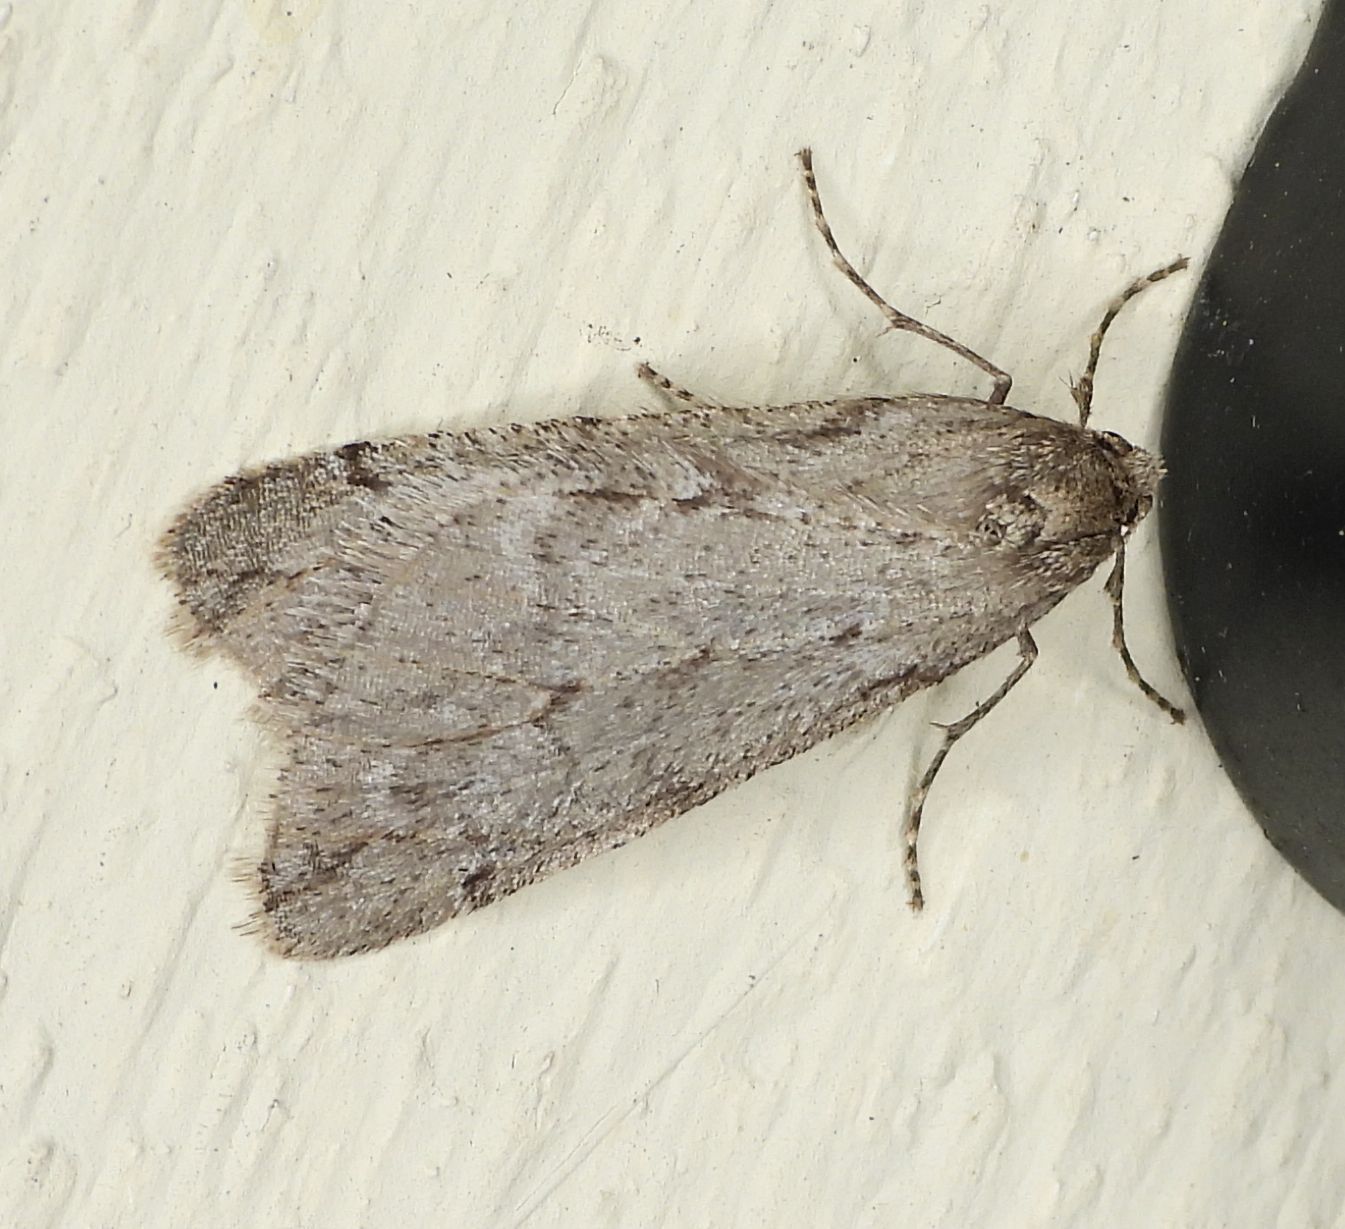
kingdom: Animalia
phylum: Arthropoda
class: Insecta
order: Lepidoptera
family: Geometridae
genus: Paleacrita
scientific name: Paleacrita vernata
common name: Spring cankerworm
